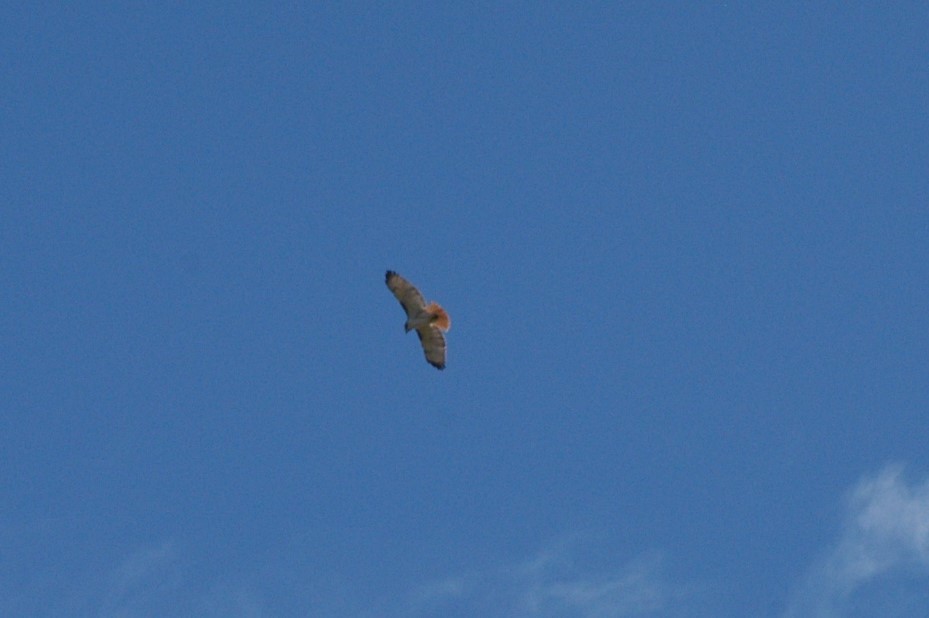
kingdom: Animalia
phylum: Chordata
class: Aves
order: Accipitriformes
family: Accipitridae
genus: Buteo
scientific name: Buteo jamaicensis
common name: Red-tailed hawk
